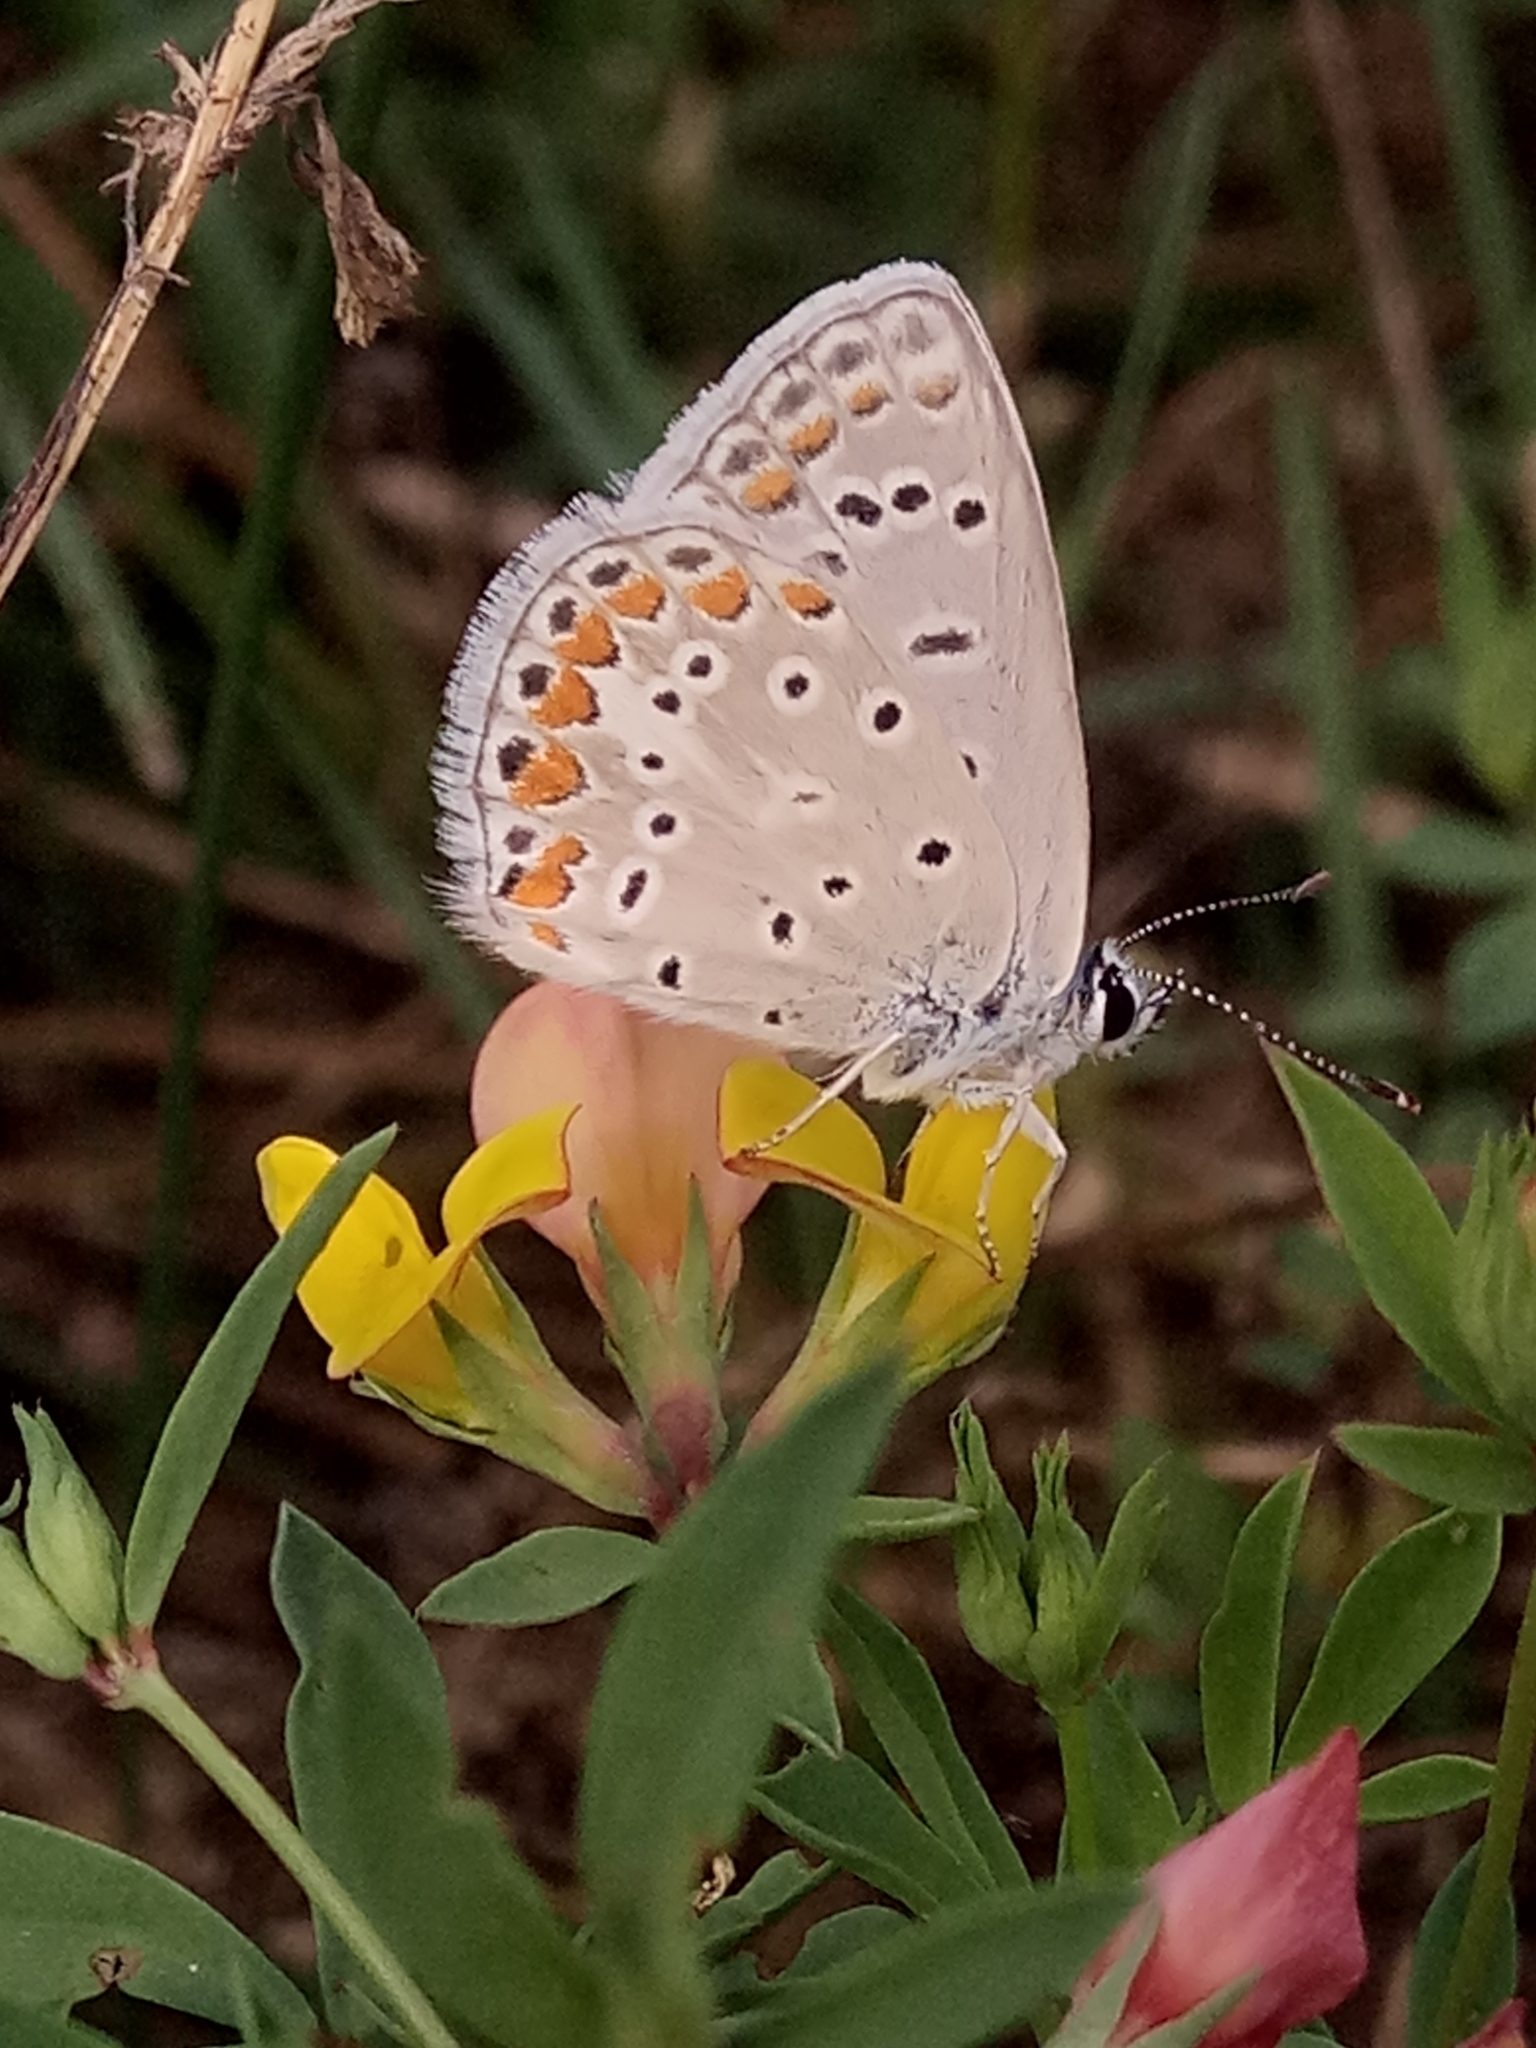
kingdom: Animalia
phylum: Arthropoda
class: Insecta
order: Lepidoptera
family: Lycaenidae
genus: Polyommatus
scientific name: Polyommatus celina
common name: Austaut's blue
